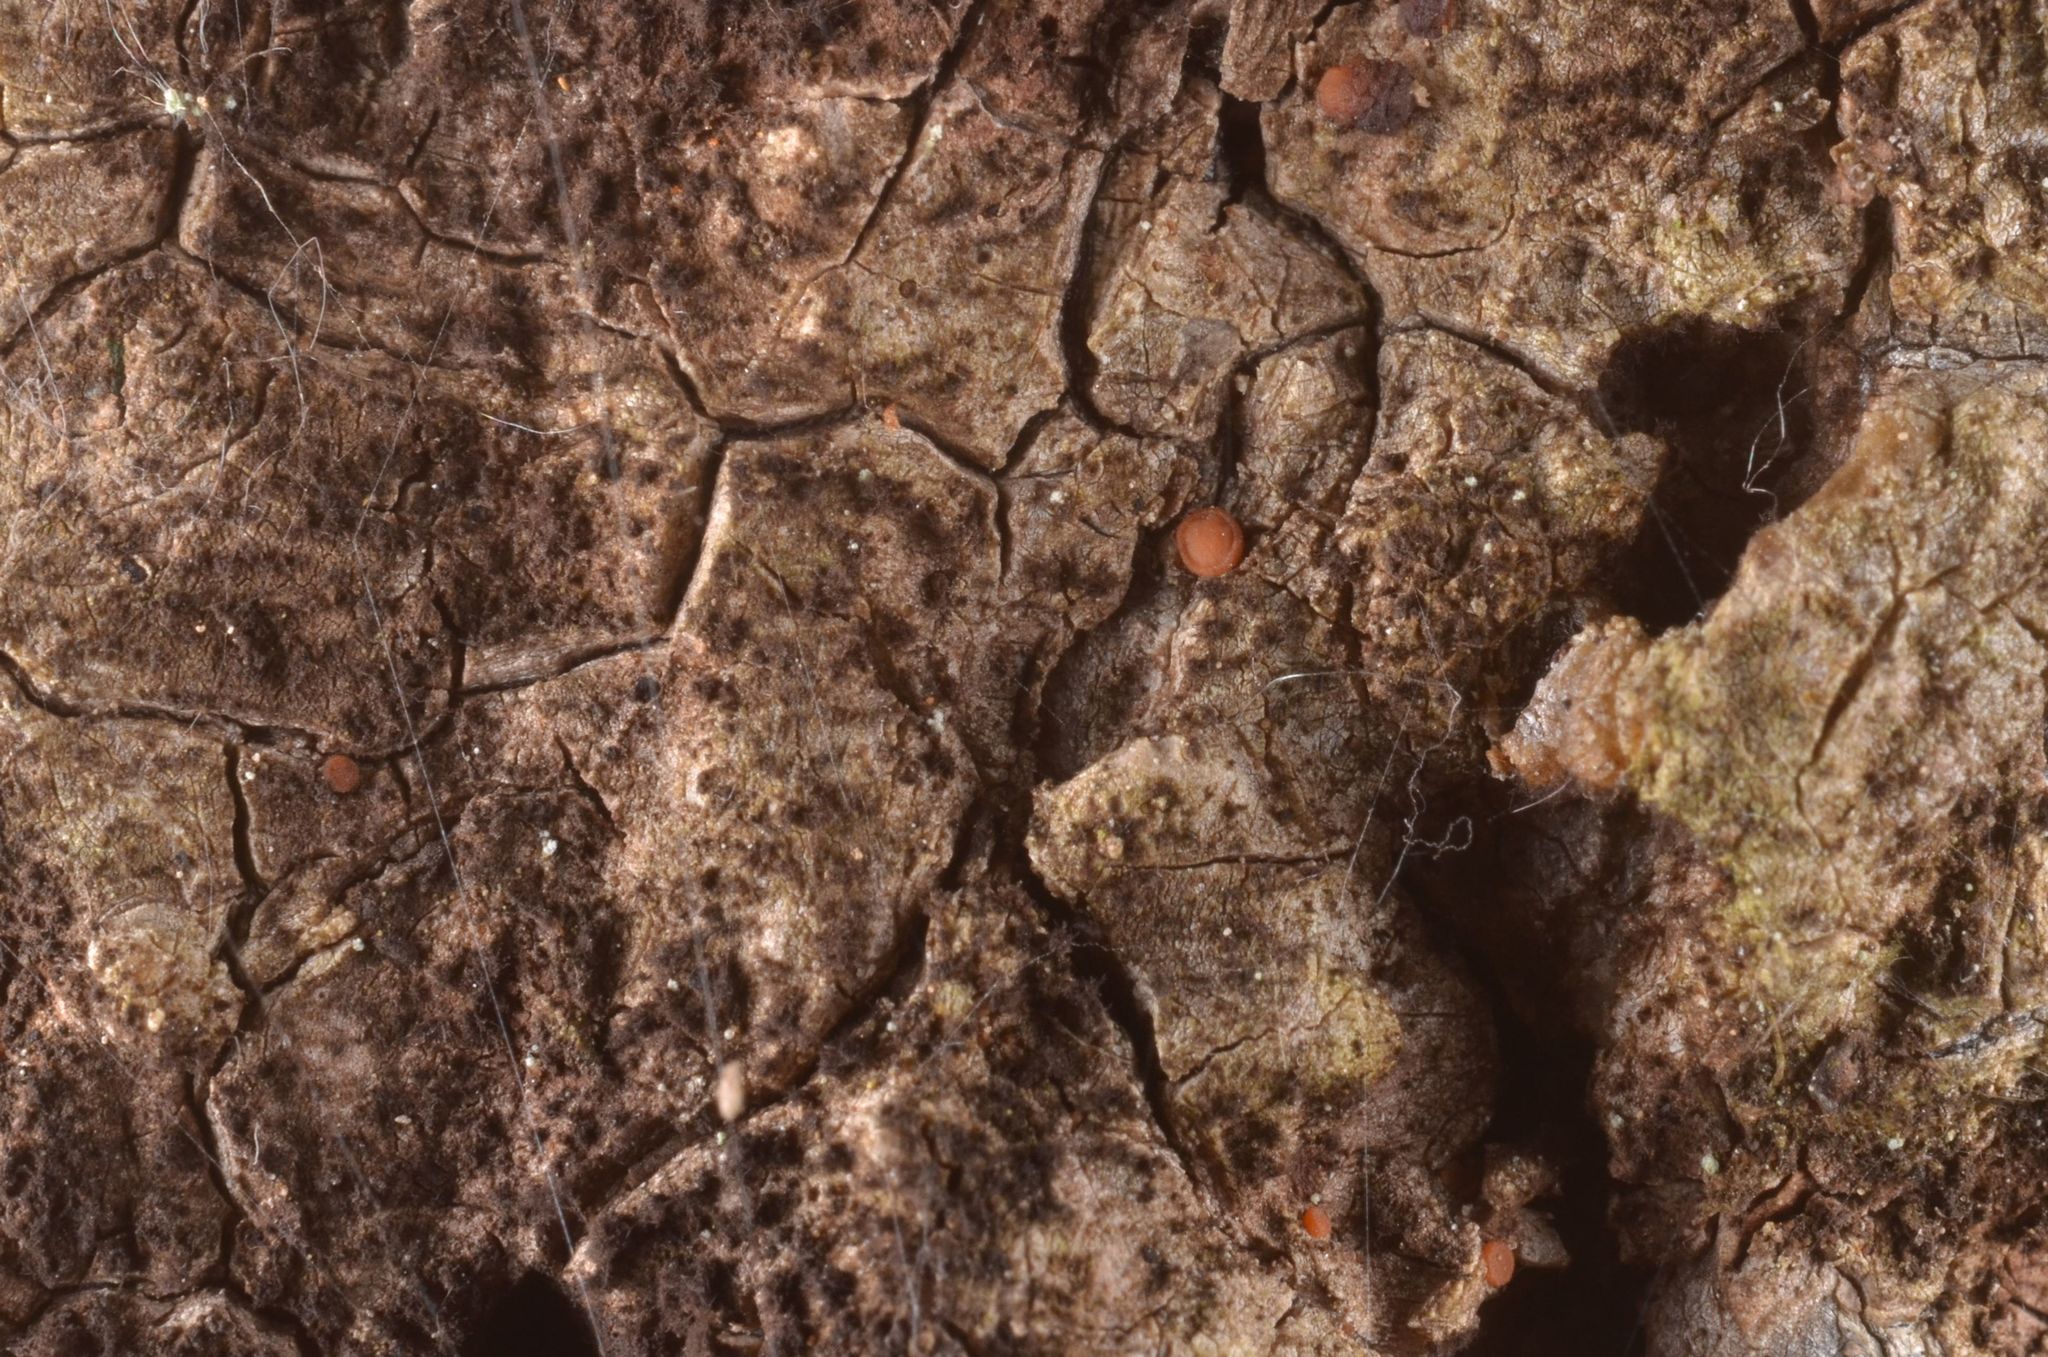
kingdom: Fungi
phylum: Ascomycota
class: Sareomycetes
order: Sareales
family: Sareaceae
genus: Sarea
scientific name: Sarea resinae
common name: Sarea lichen
